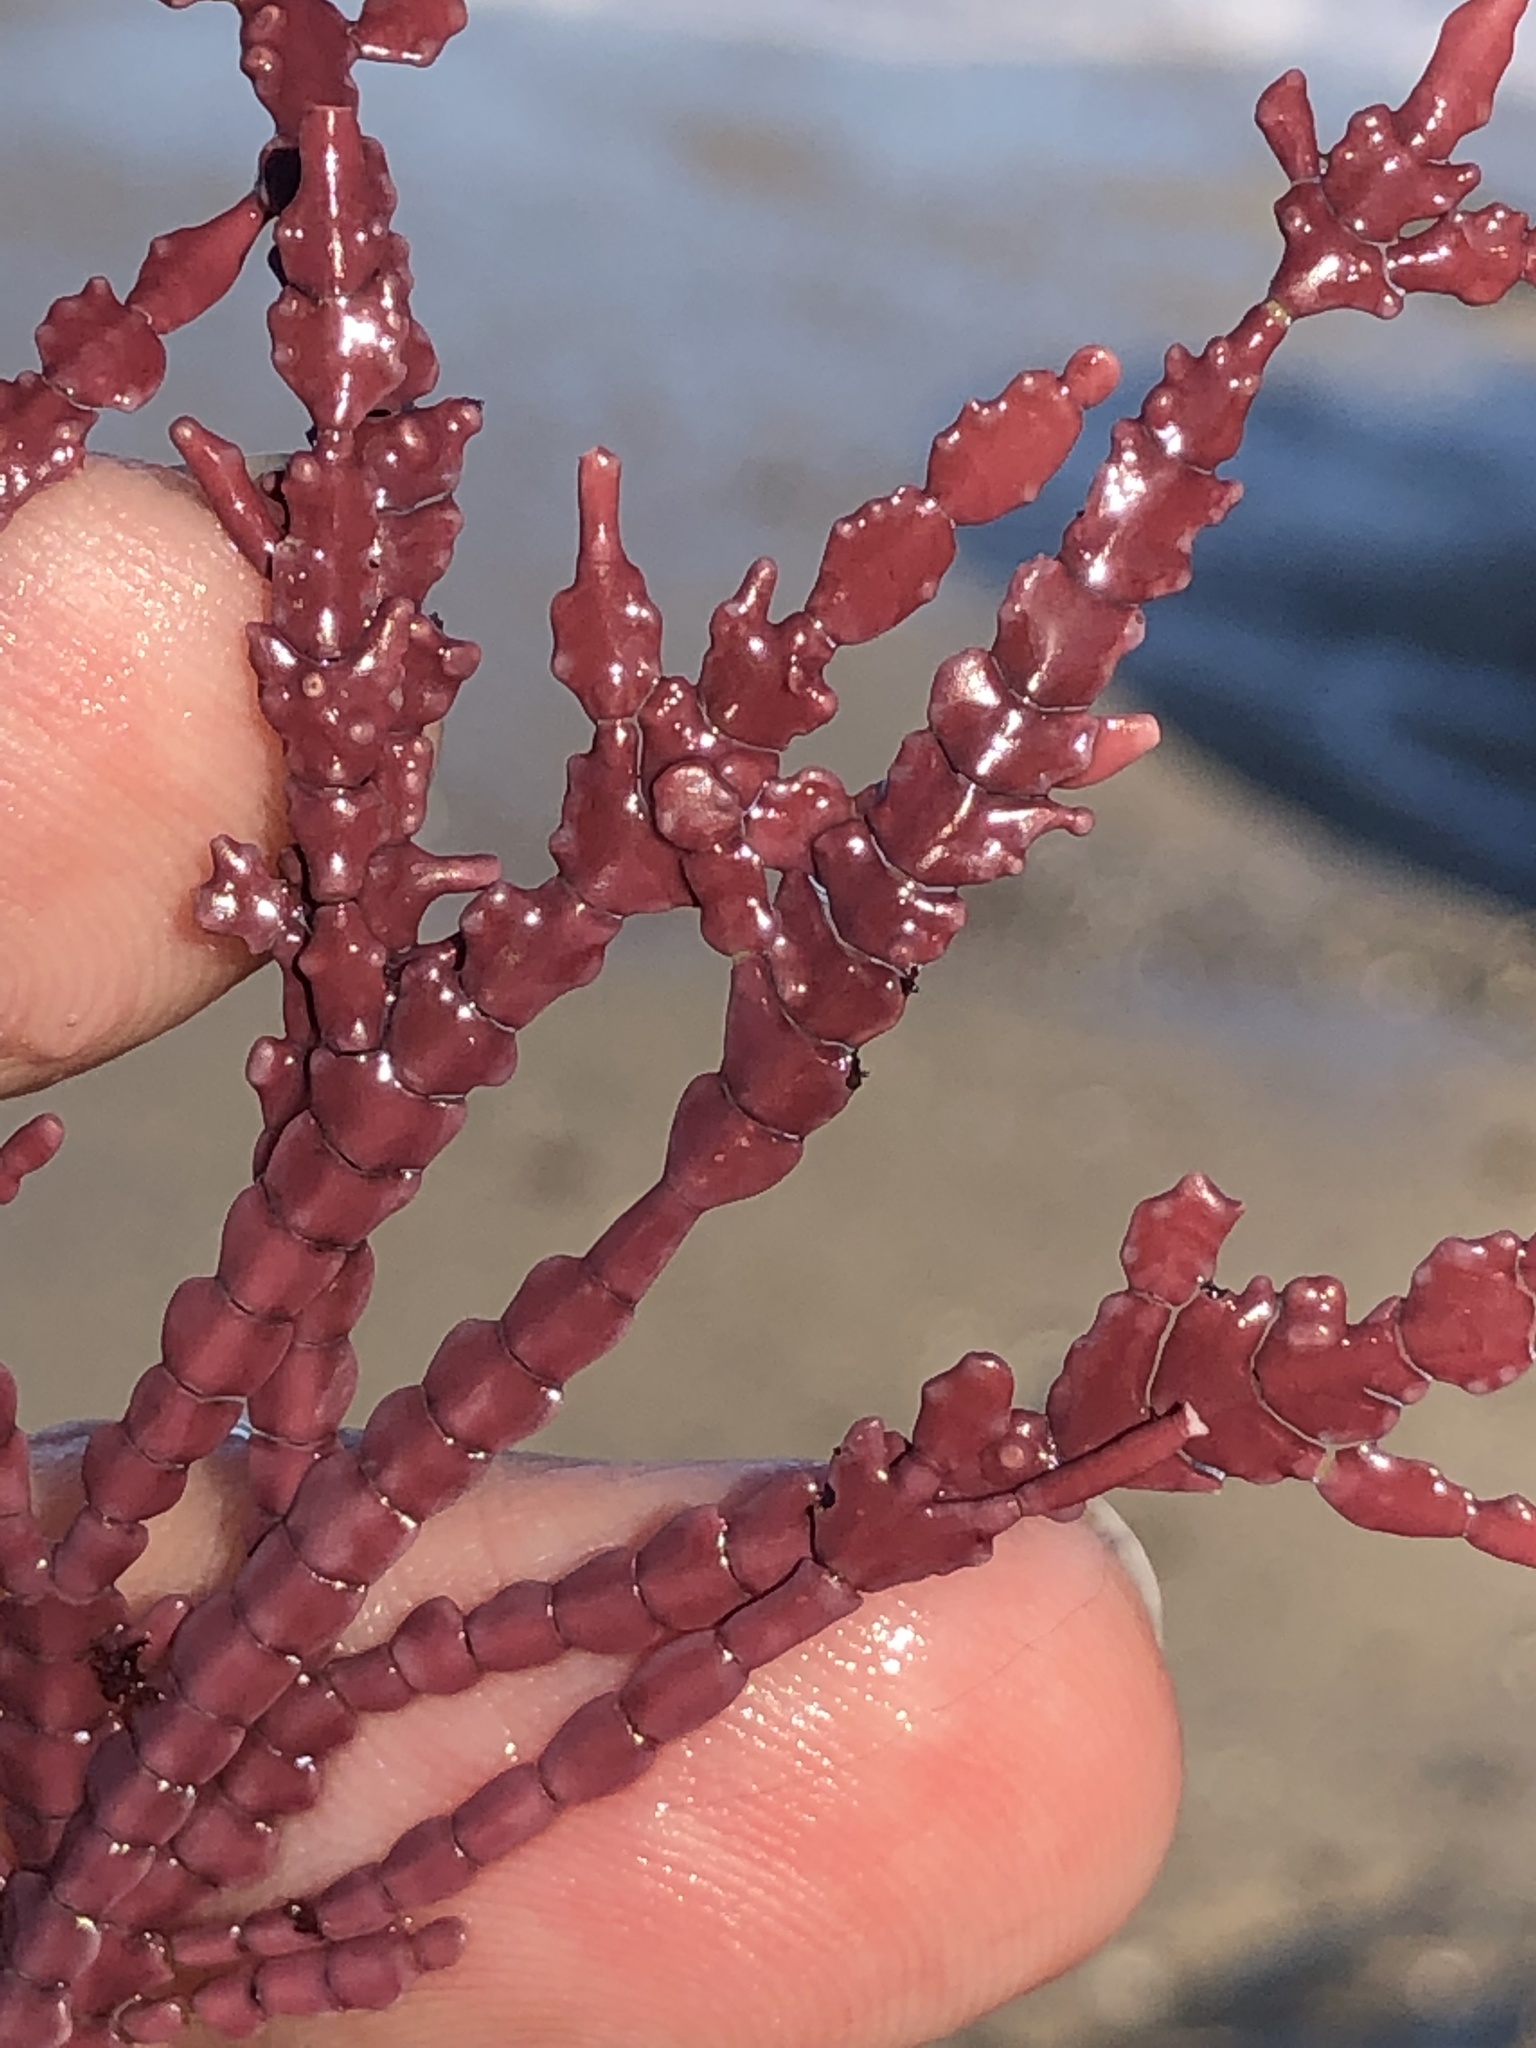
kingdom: Plantae
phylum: Rhodophyta
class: Florideophyceae
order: Corallinales
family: Corallinaceae
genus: Calliarthron
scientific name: Calliarthron tuberculosum
